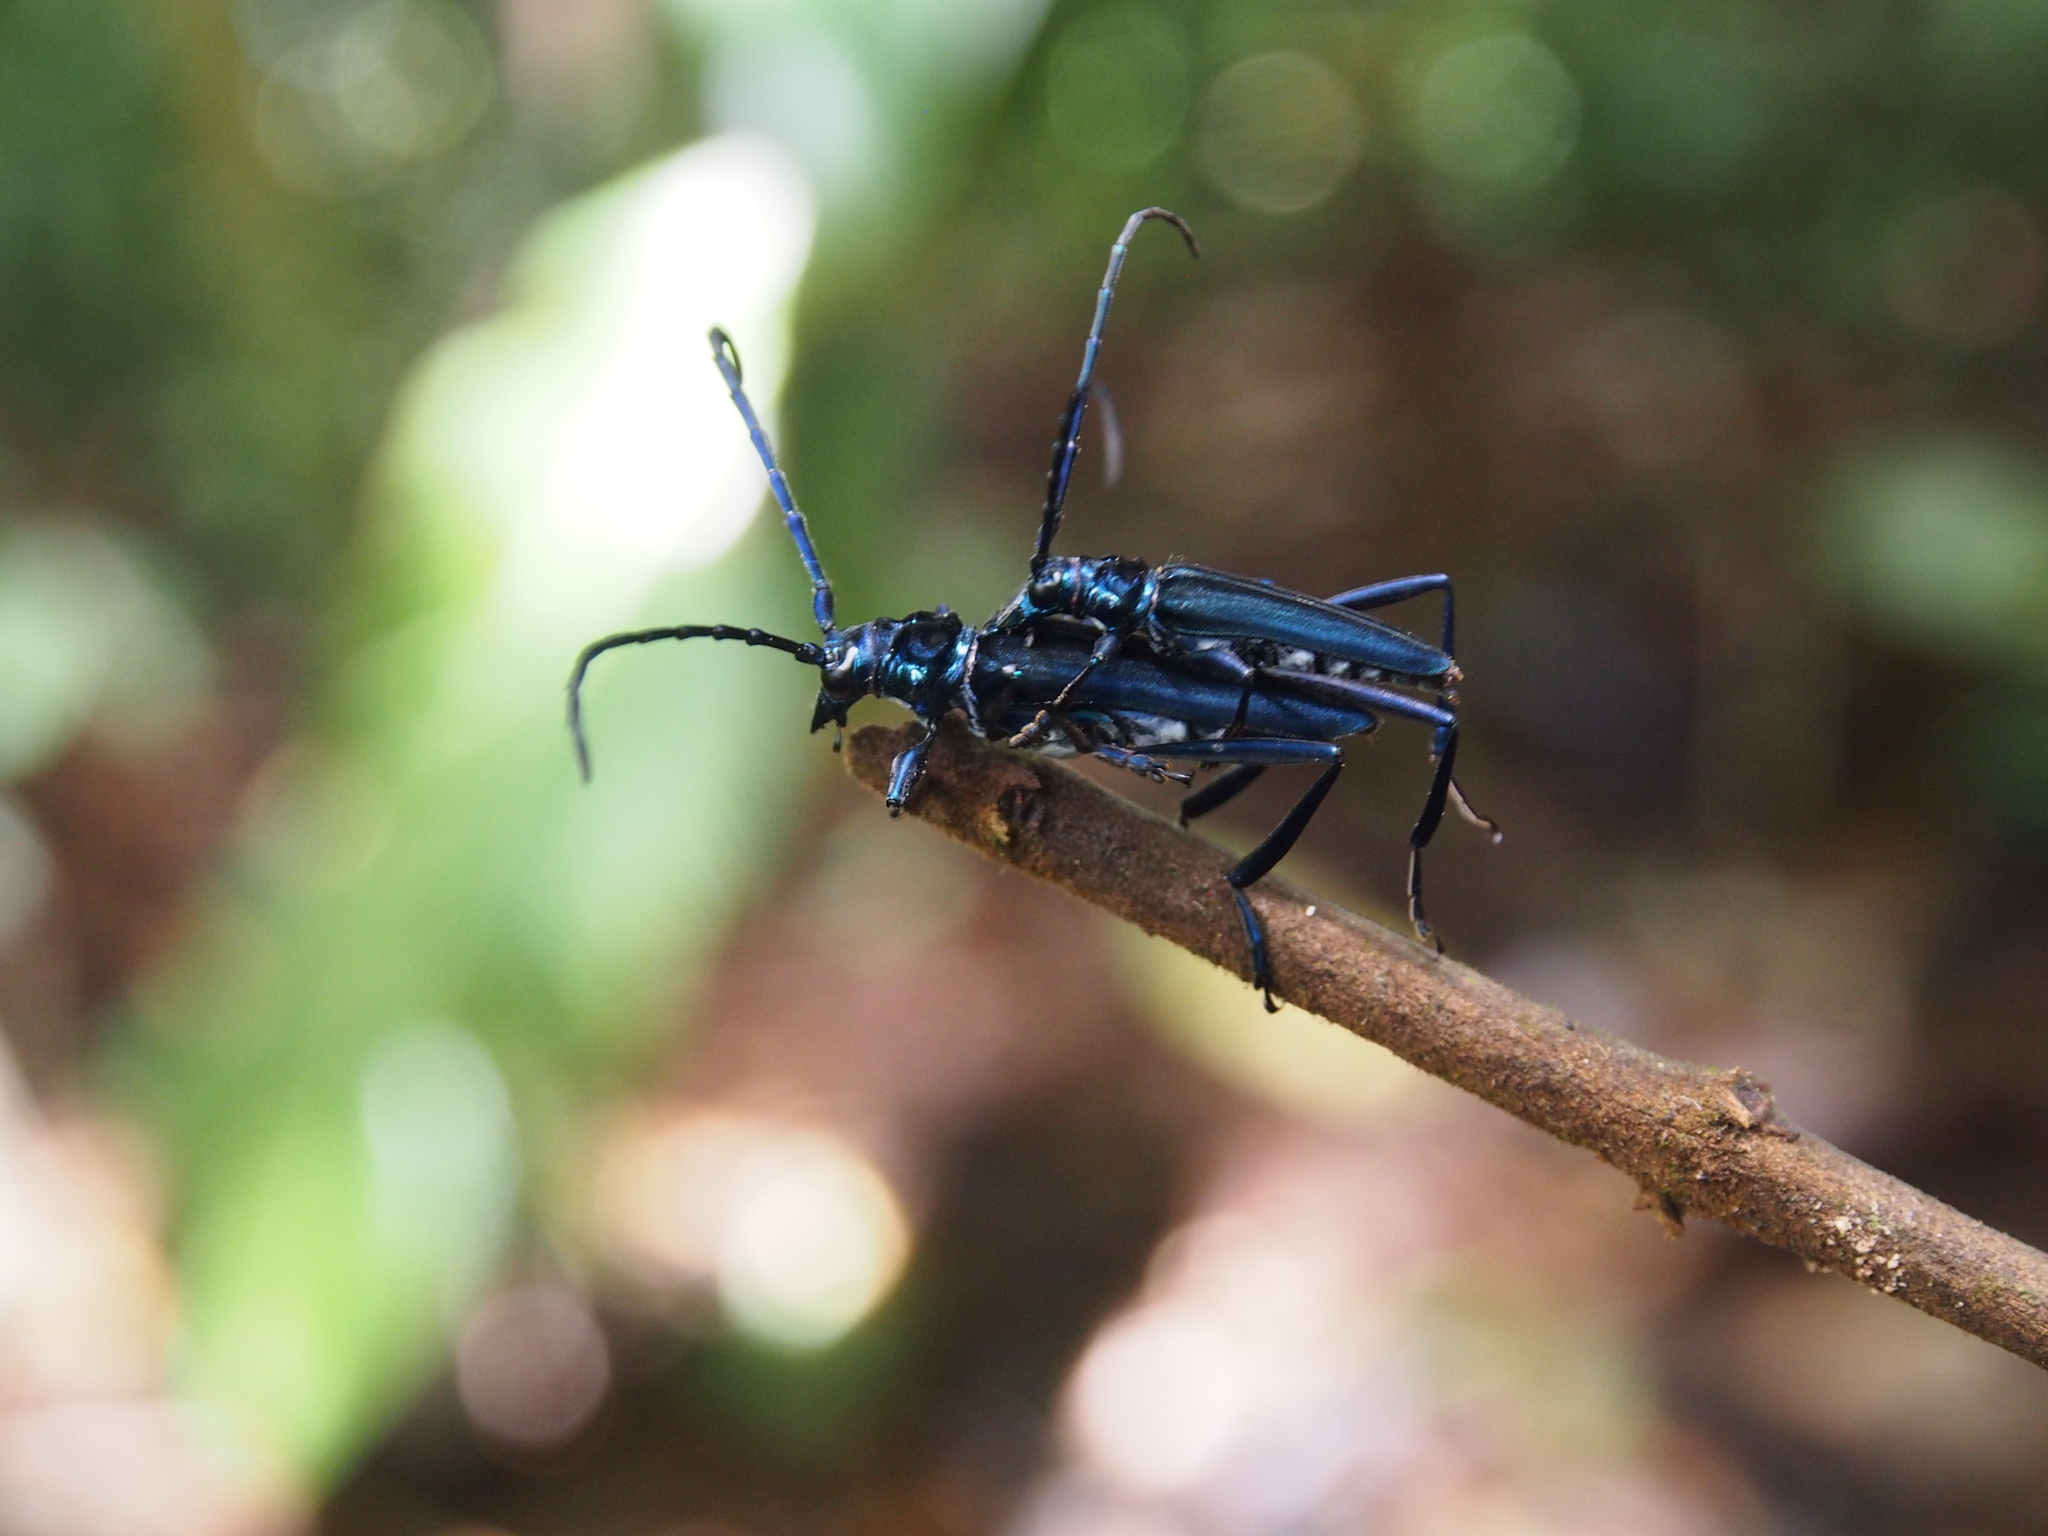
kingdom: Animalia
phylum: Arthropoda
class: Insecta
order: Coleoptera
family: Cerambycidae
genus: Monnechroma
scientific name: Monnechroma azurea
